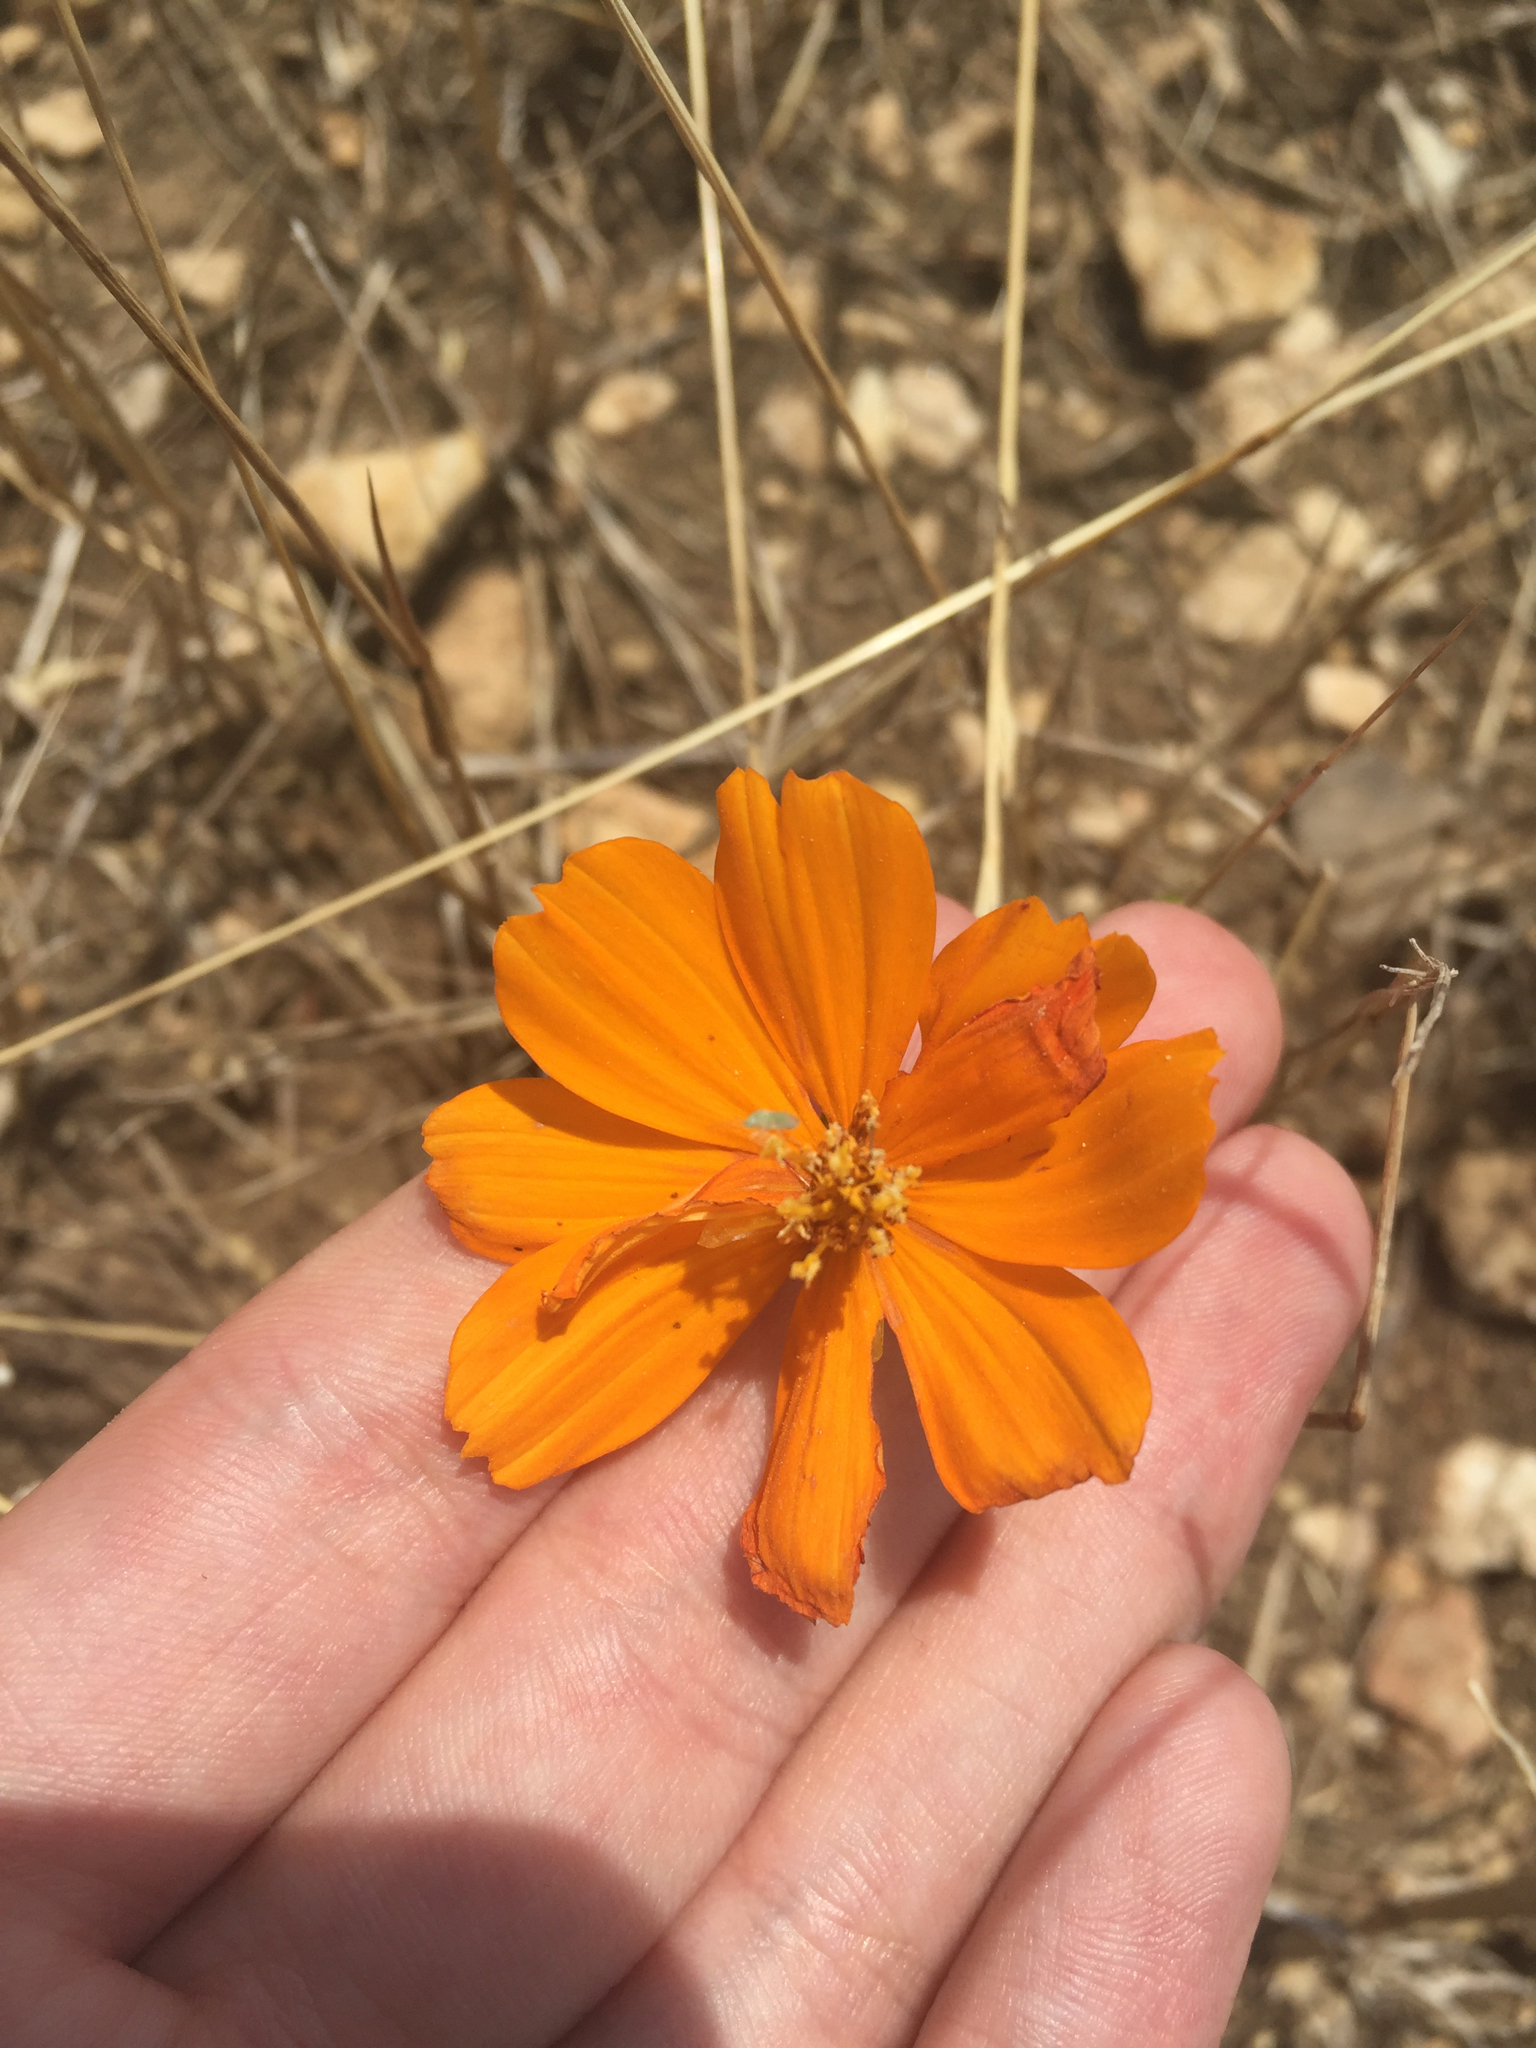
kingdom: Plantae
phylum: Tracheophyta
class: Magnoliopsida
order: Asterales
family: Asteraceae
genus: Cosmos
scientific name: Cosmos sulphureus
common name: Sulphur cosmos
